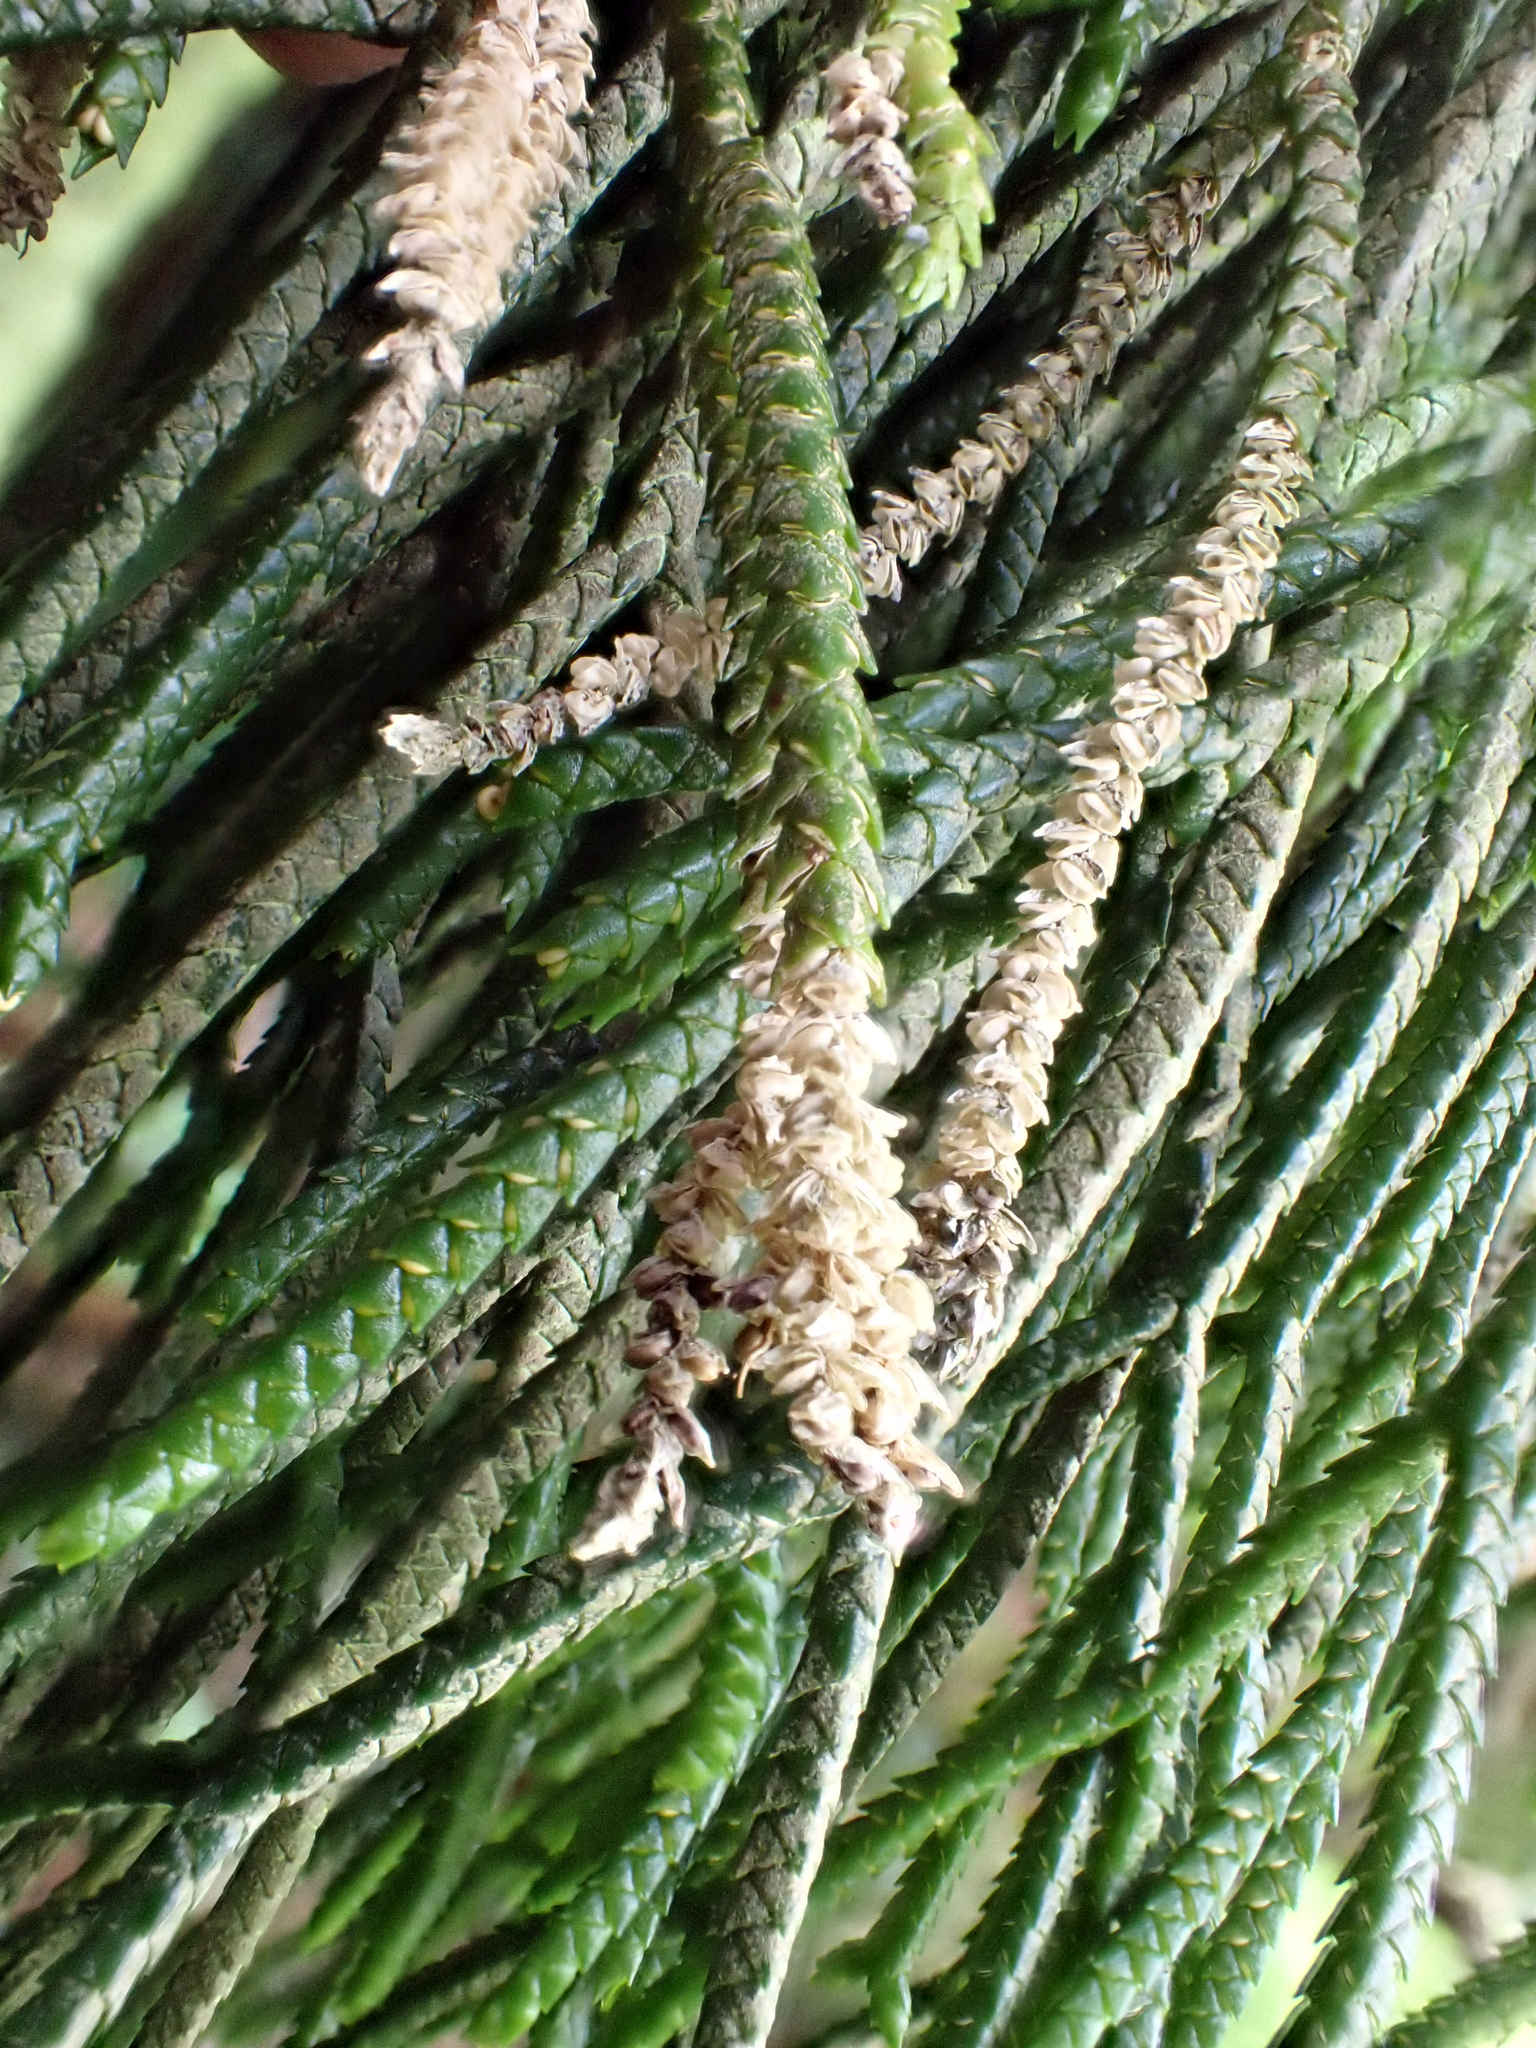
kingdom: Plantae
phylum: Tracheophyta
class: Lycopodiopsida
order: Lycopodiales
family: Lycopodiaceae
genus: Phlegmariurus
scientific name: Phlegmariurus billardierei
